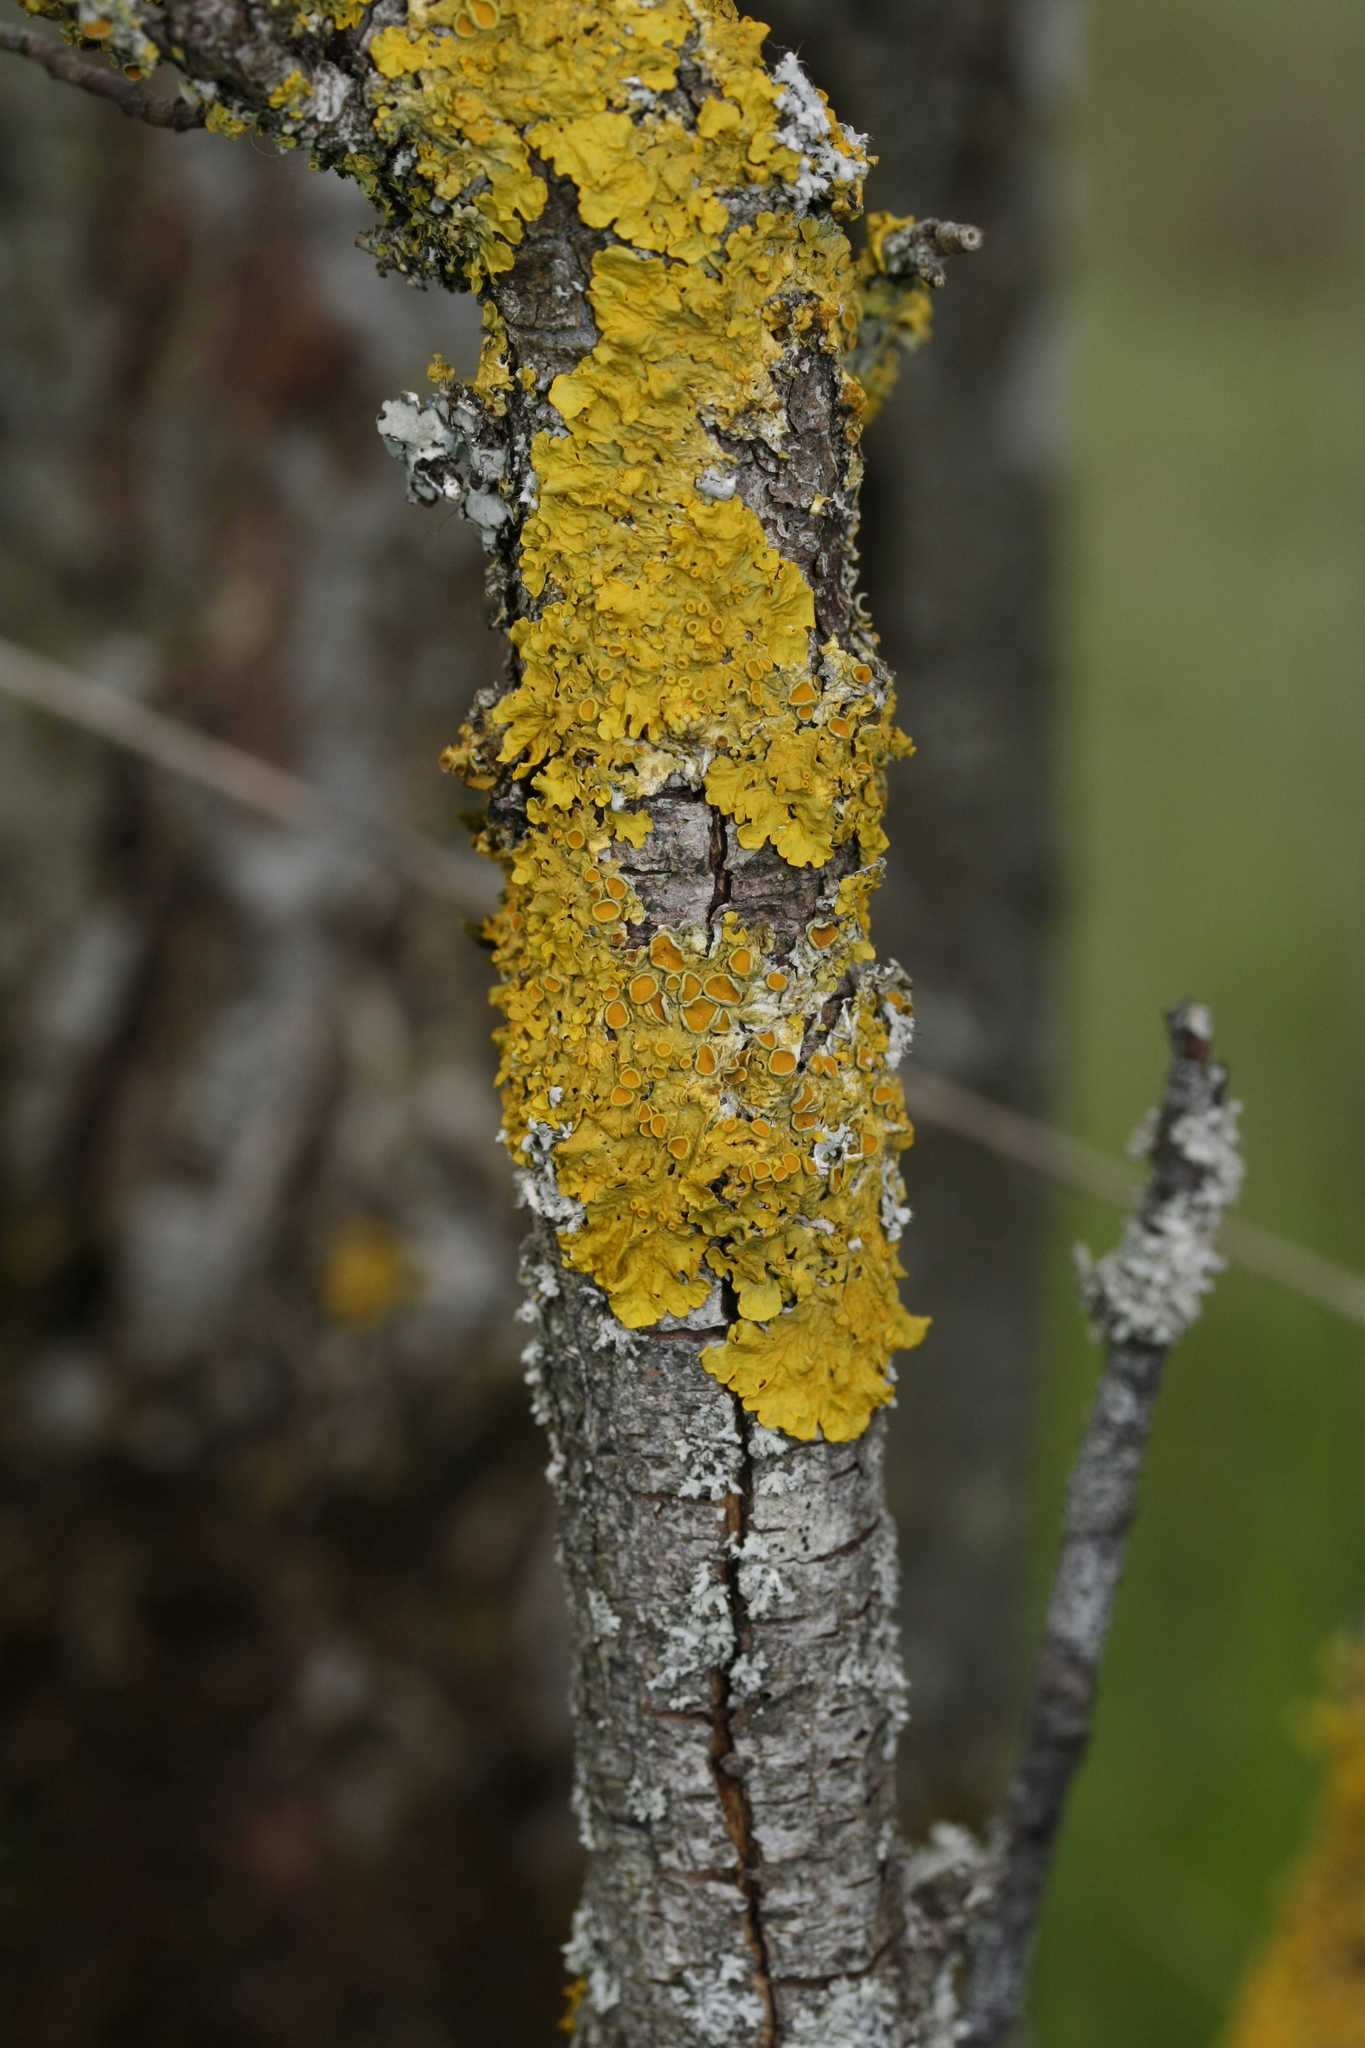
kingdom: Fungi
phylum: Ascomycota
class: Lecanoromycetes
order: Teloschistales
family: Teloschistaceae
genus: Xanthoria
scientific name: Xanthoria parietina
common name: Common orange lichen
